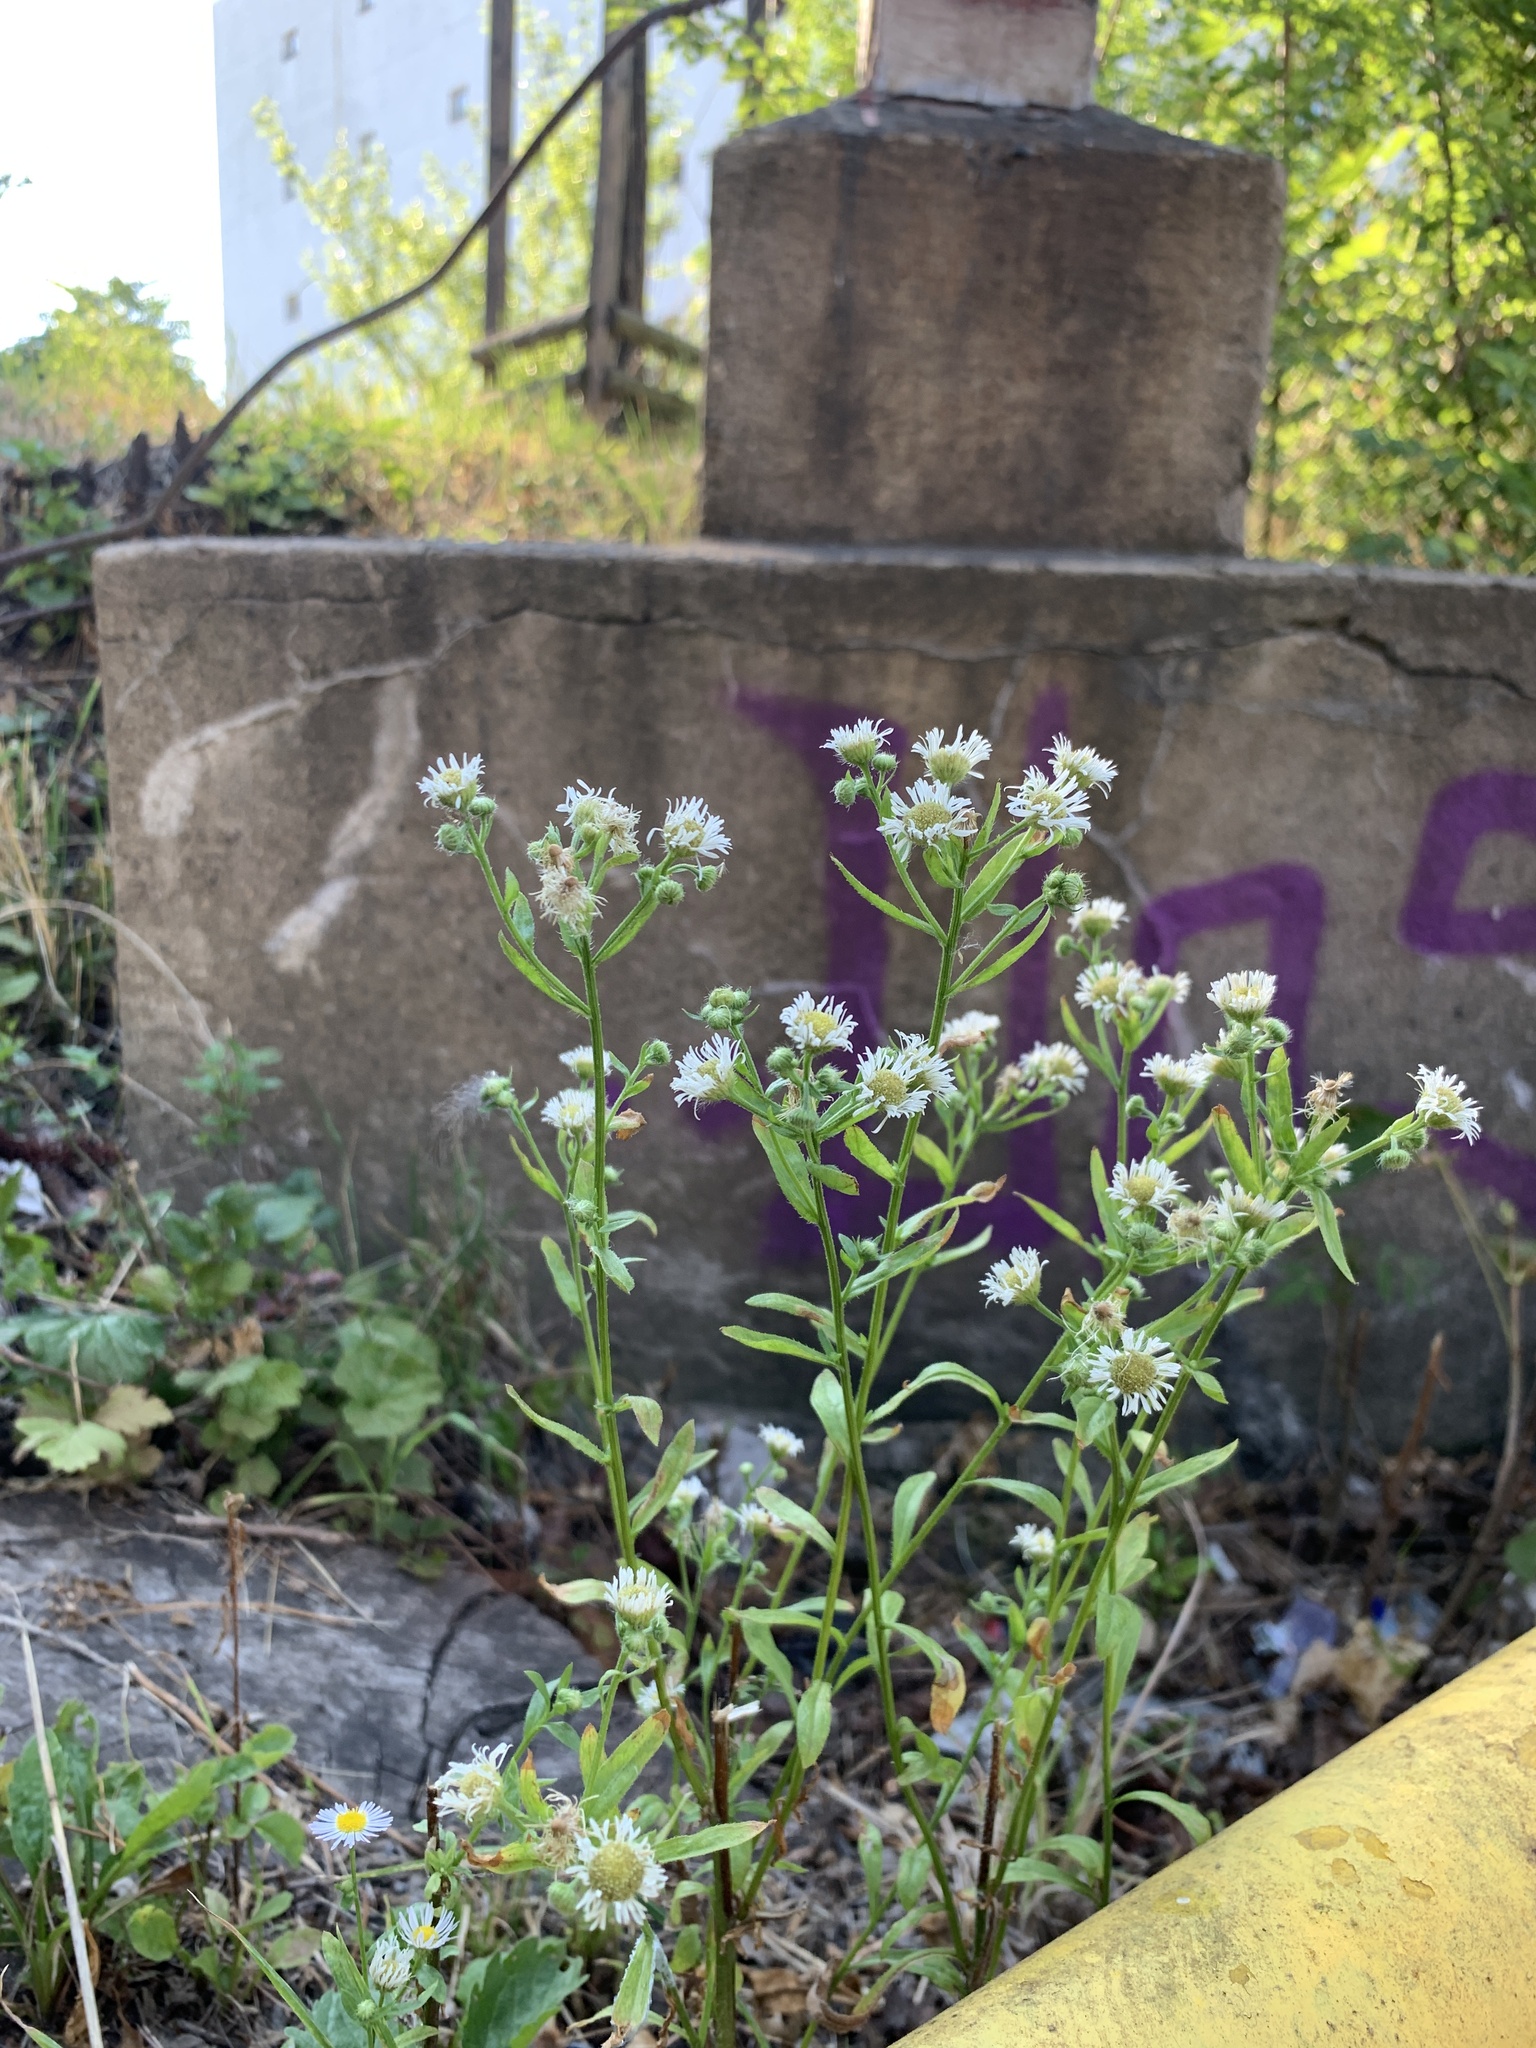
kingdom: Plantae
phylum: Tracheophyta
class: Magnoliopsida
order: Asterales
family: Asteraceae
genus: Erigeron
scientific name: Erigeron annuus
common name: Tall fleabane
